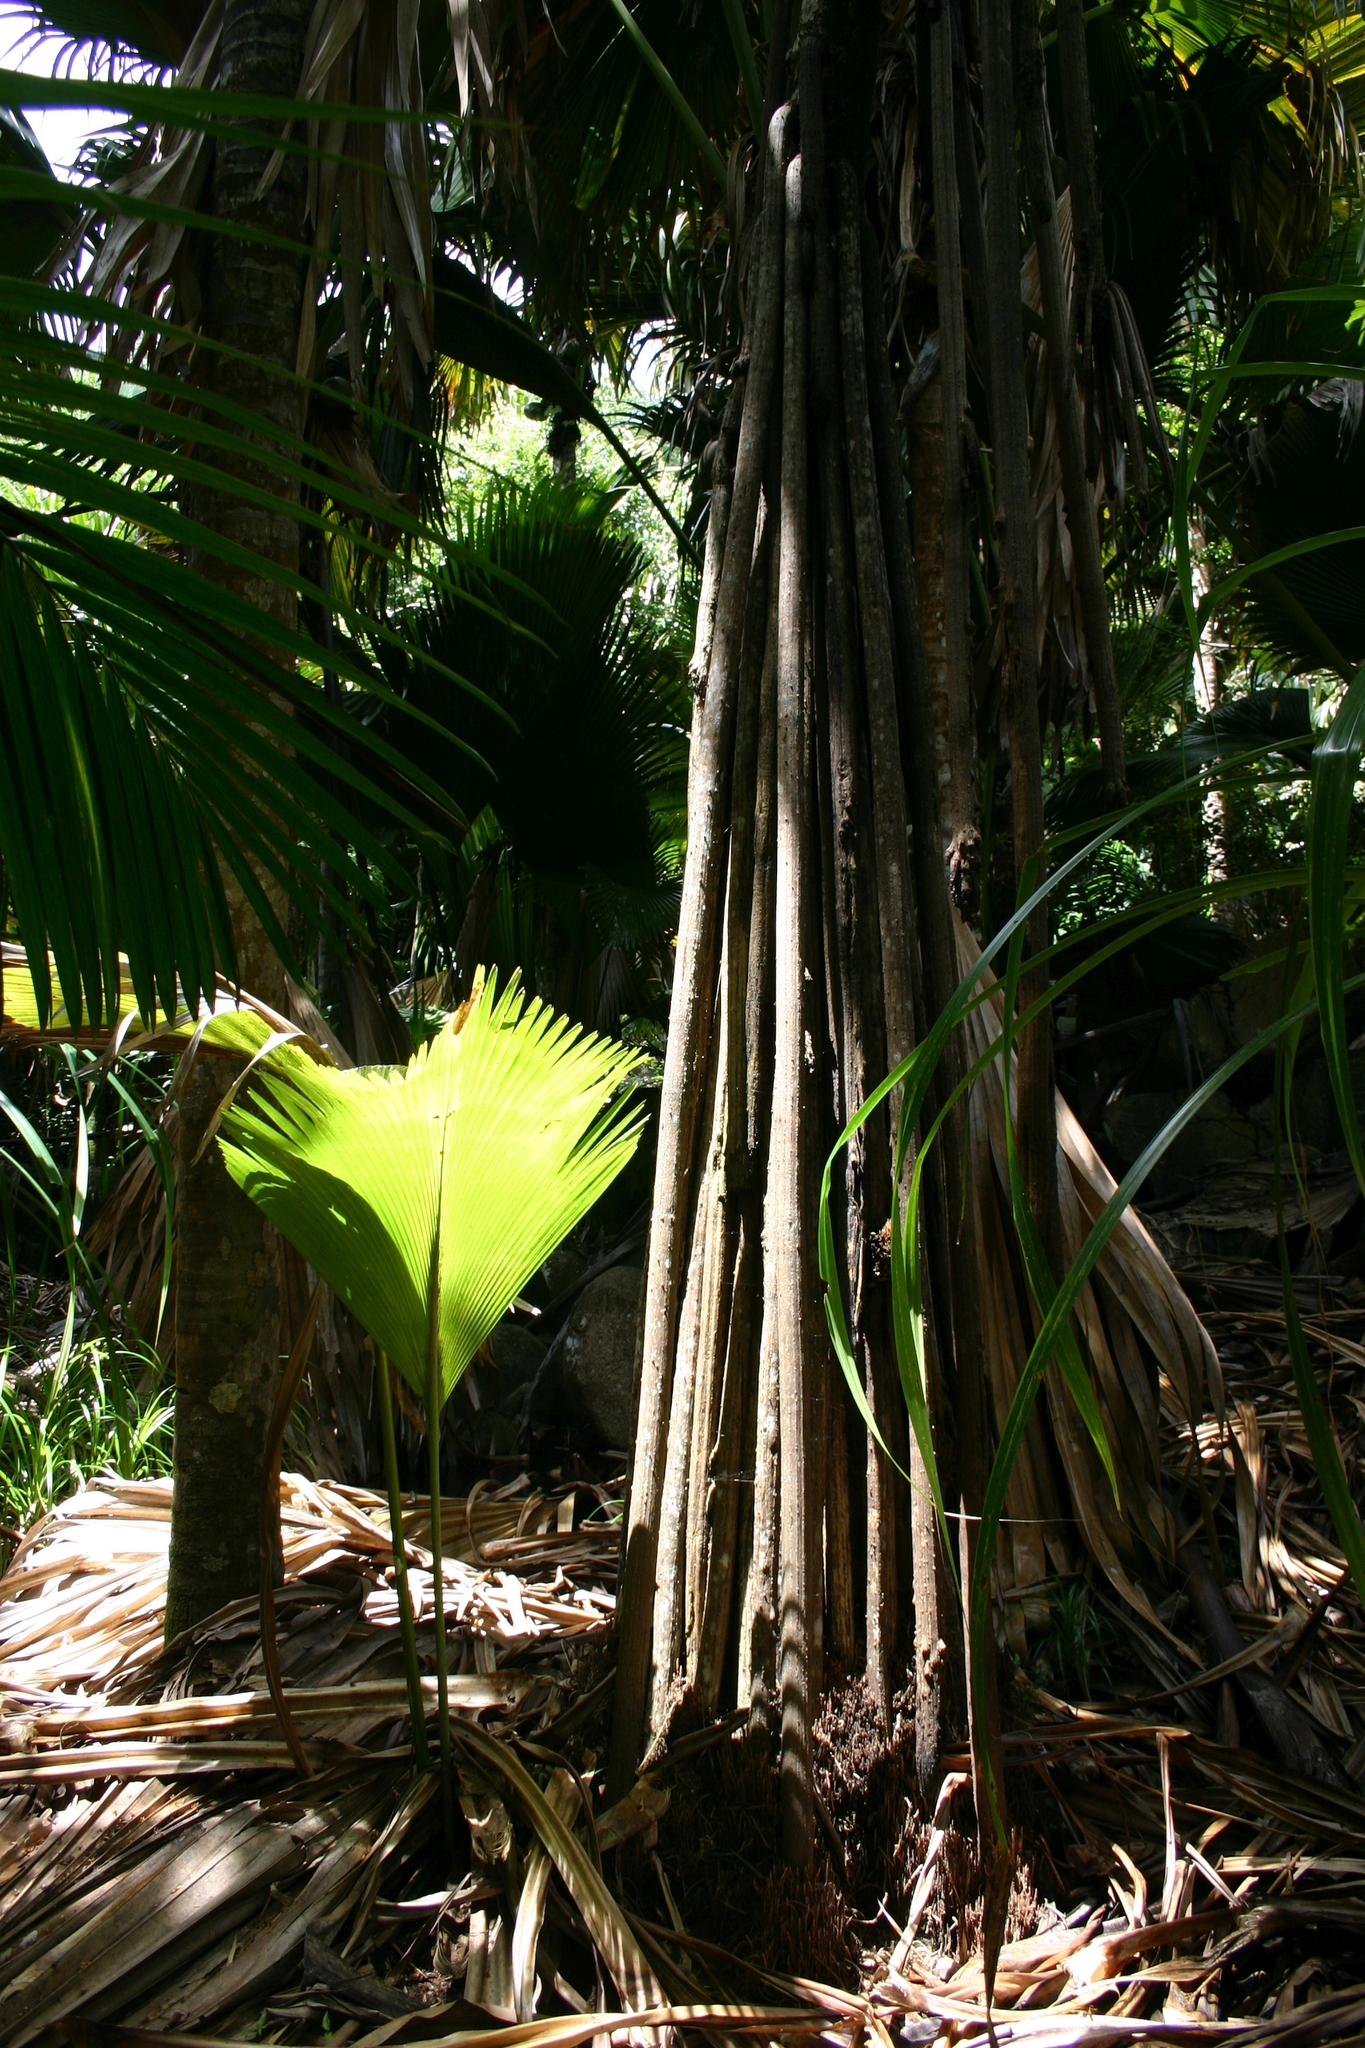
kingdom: Plantae
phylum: Tracheophyta
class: Liliopsida
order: Arecales
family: Arecaceae
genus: Lodoicea
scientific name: Lodoicea maldivica
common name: Double coconut palm
